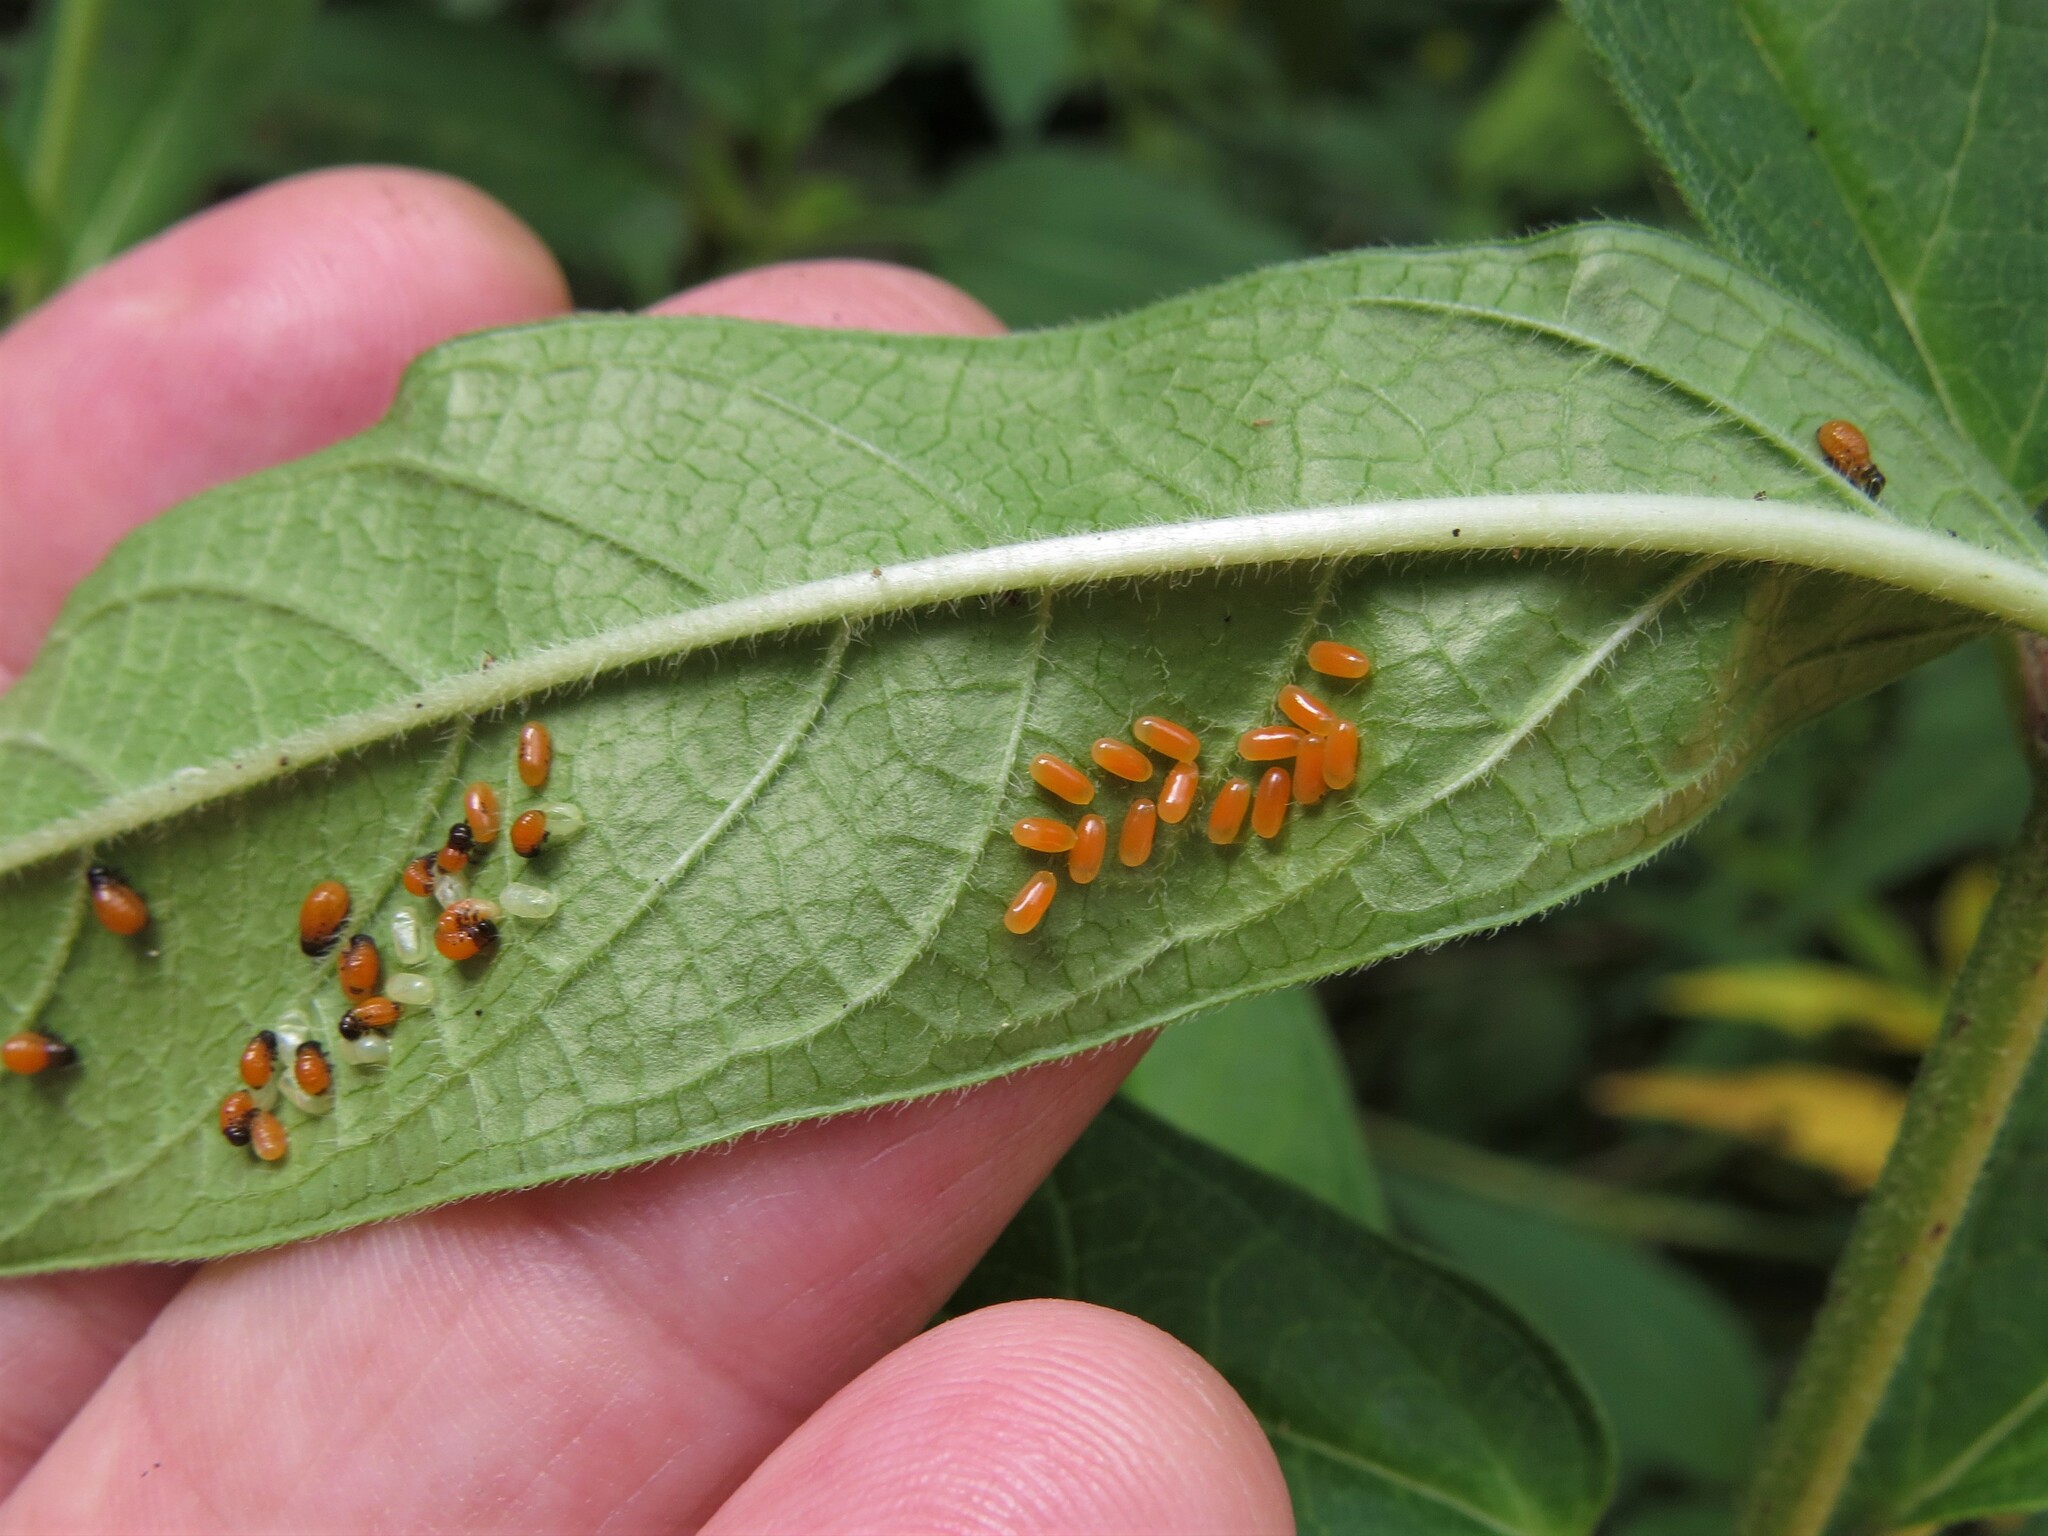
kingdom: Animalia
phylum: Arthropoda
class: Insecta
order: Coleoptera
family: Chrysomelidae
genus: Labidomera
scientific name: Labidomera clivicollis
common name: Swamp milkweed leaf beetle
